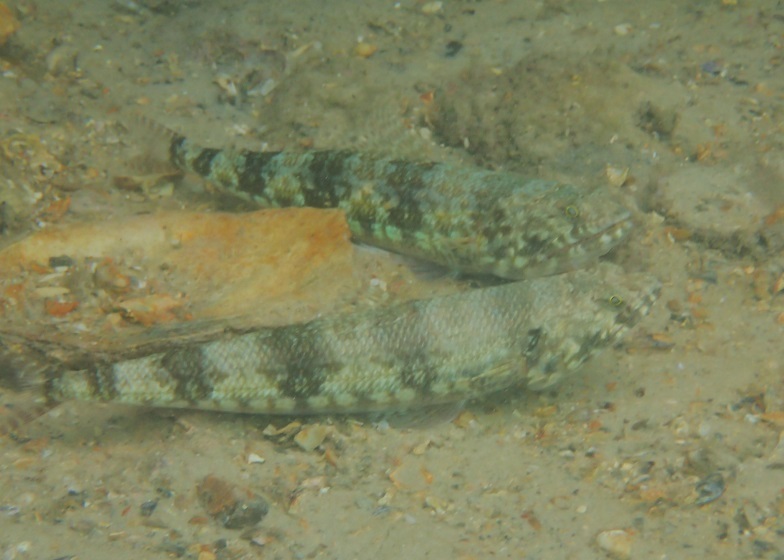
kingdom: Animalia
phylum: Chordata
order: Aulopiformes
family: Synodontidae
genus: Synodus
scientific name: Synodus variegatus
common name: Variegated lizardfish
